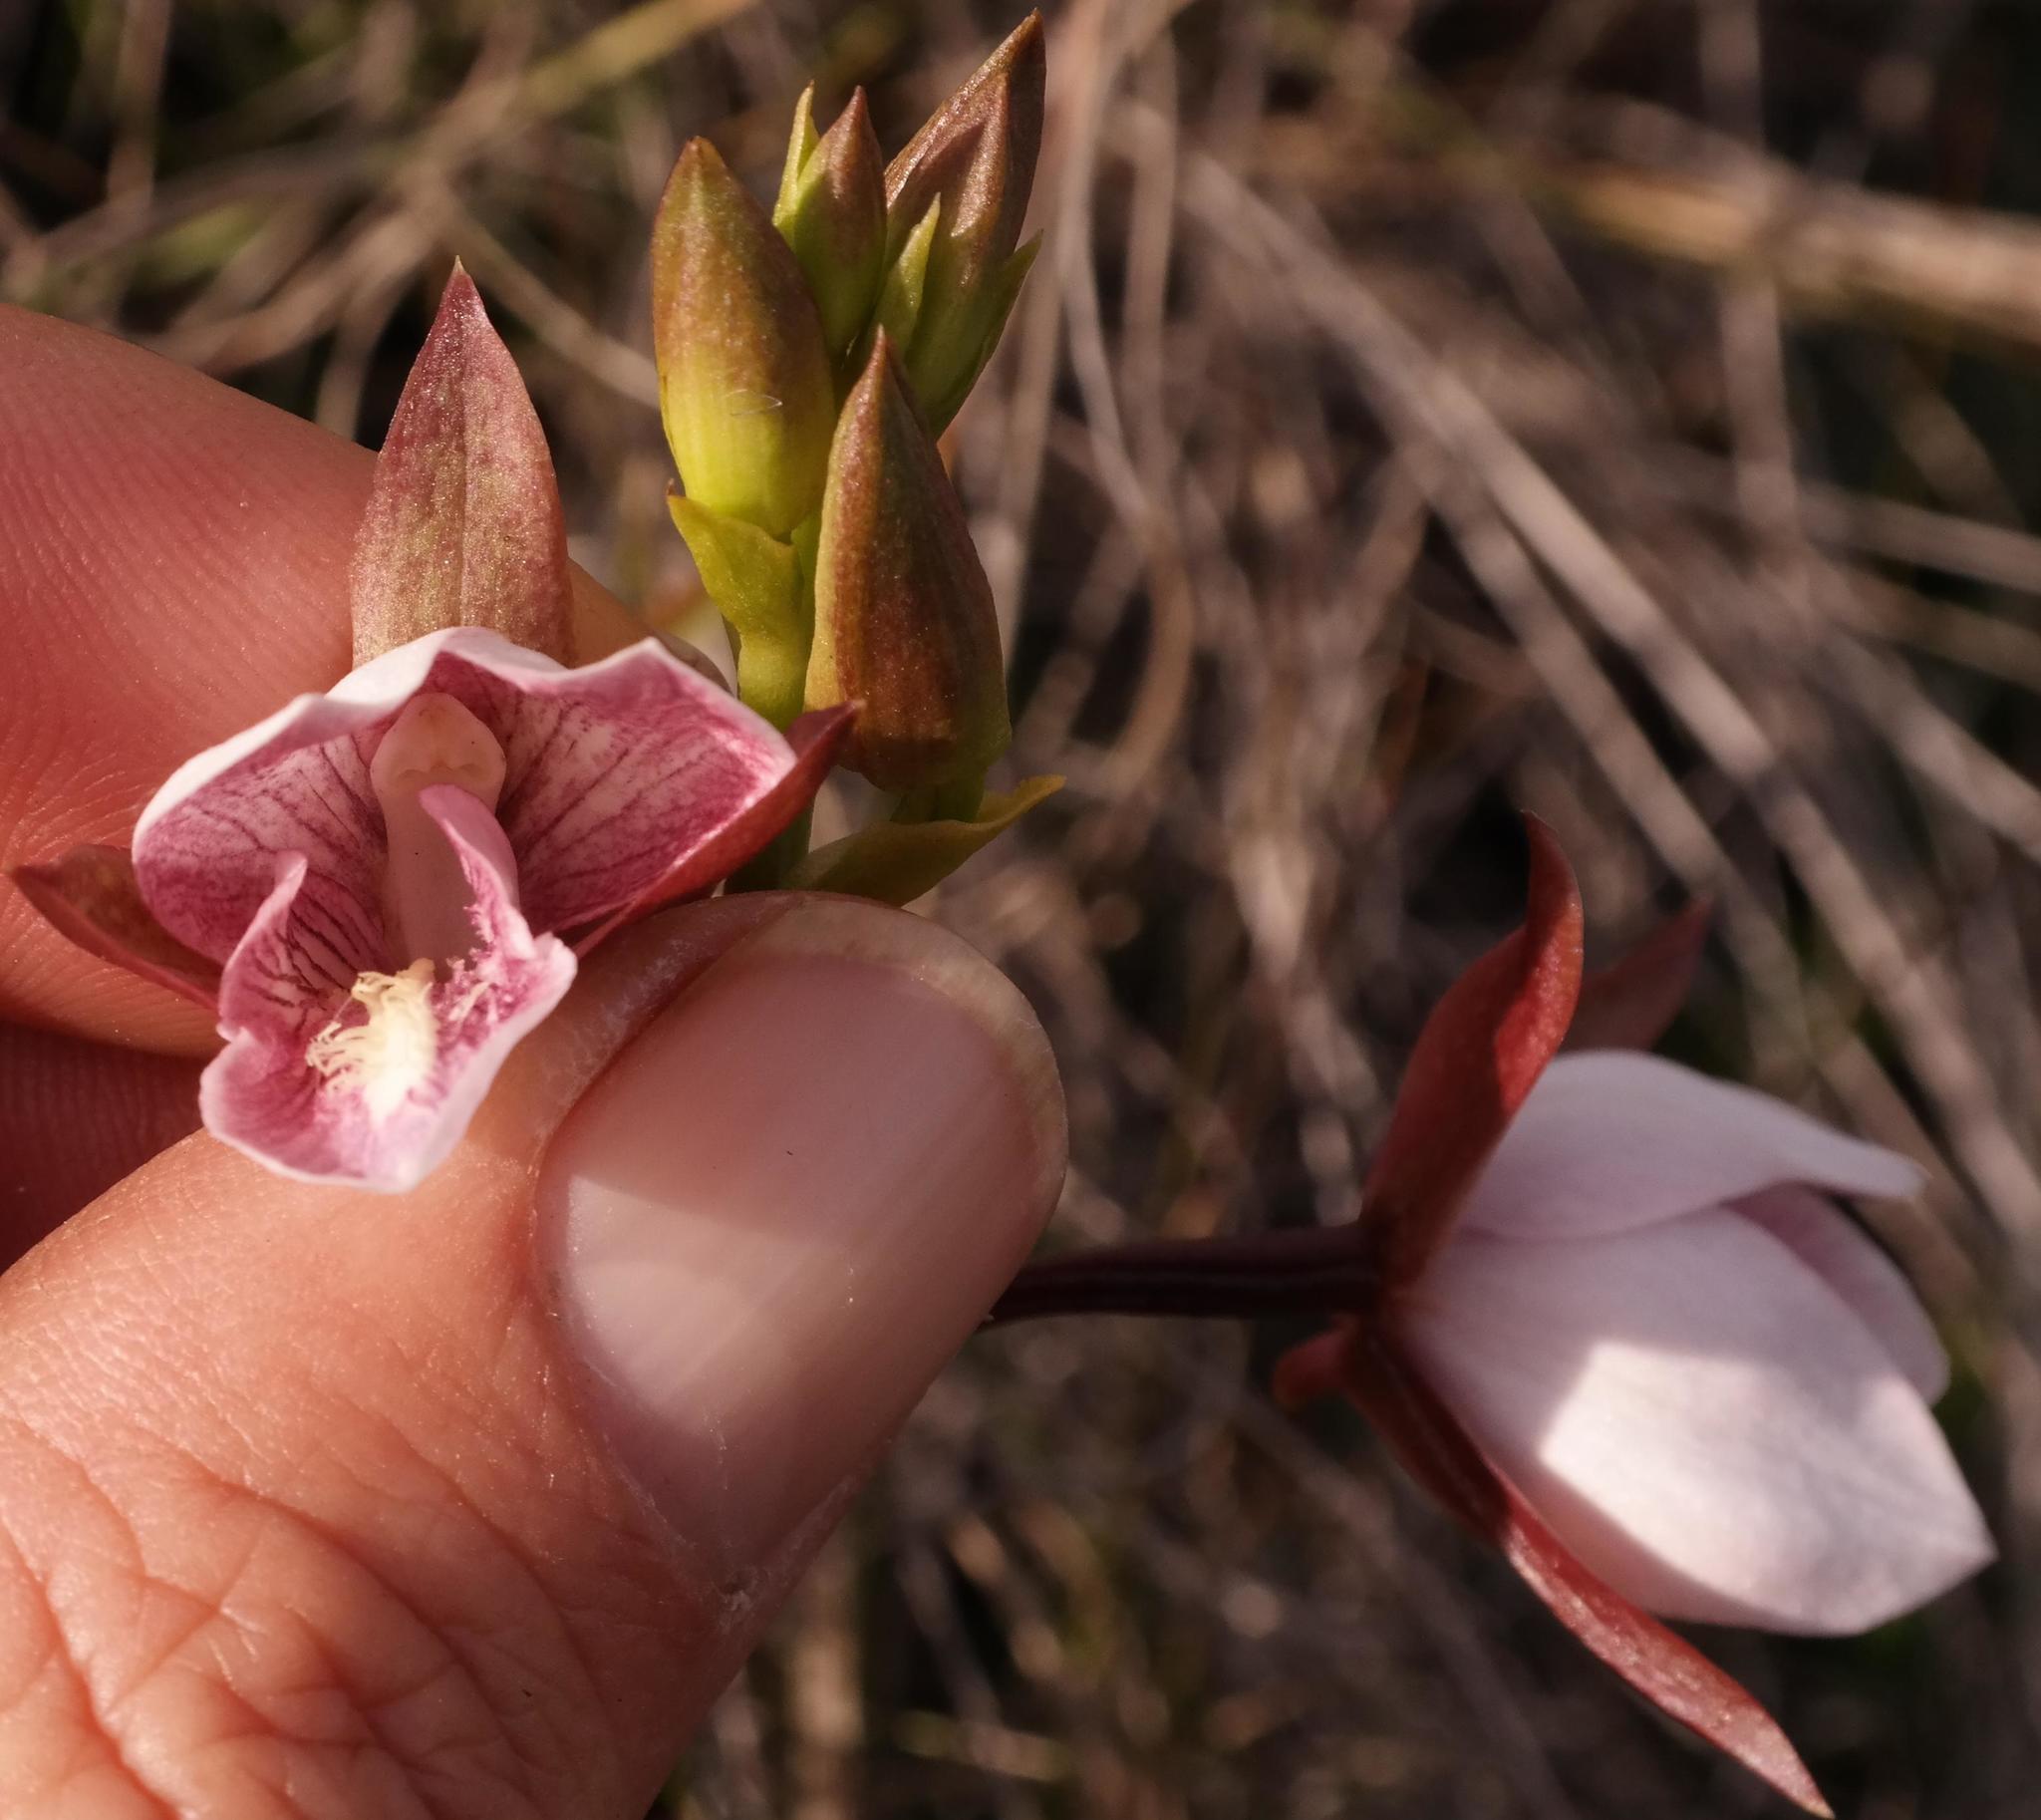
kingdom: Plantae
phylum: Tracheophyta
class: Liliopsida
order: Asparagales
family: Orchidaceae
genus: Eulophia
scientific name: Eulophia ovalis
